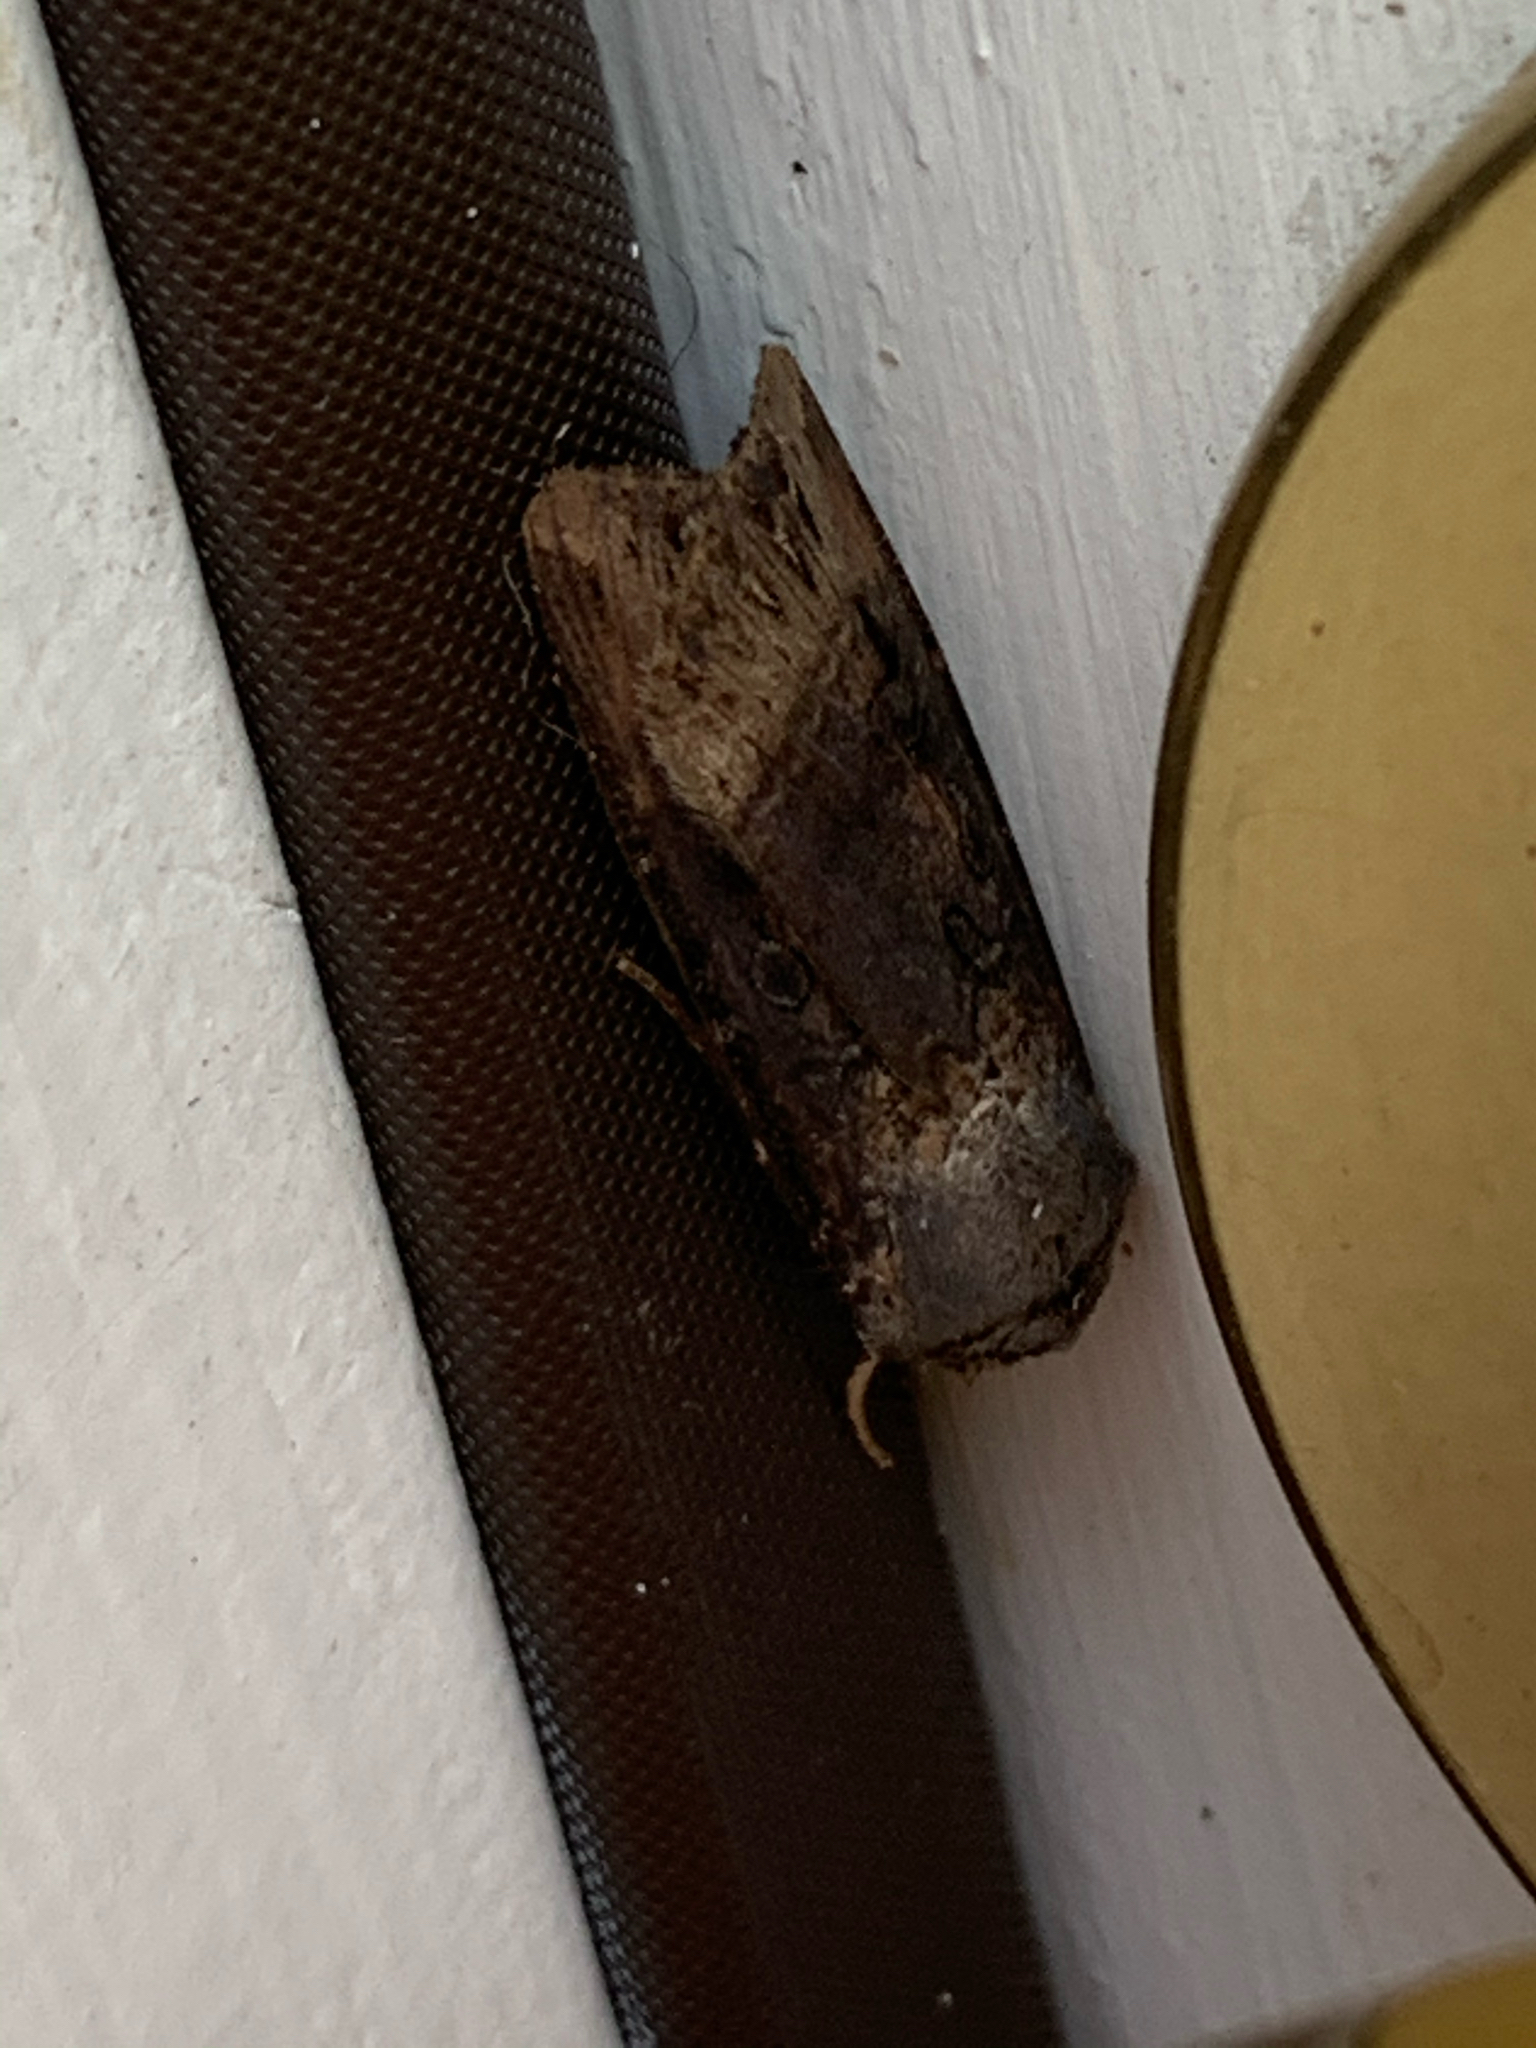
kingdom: Animalia
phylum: Arthropoda
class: Insecta
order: Lepidoptera
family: Noctuidae
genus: Agrotis
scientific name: Agrotis ipsilon
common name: Dark sword-grass
